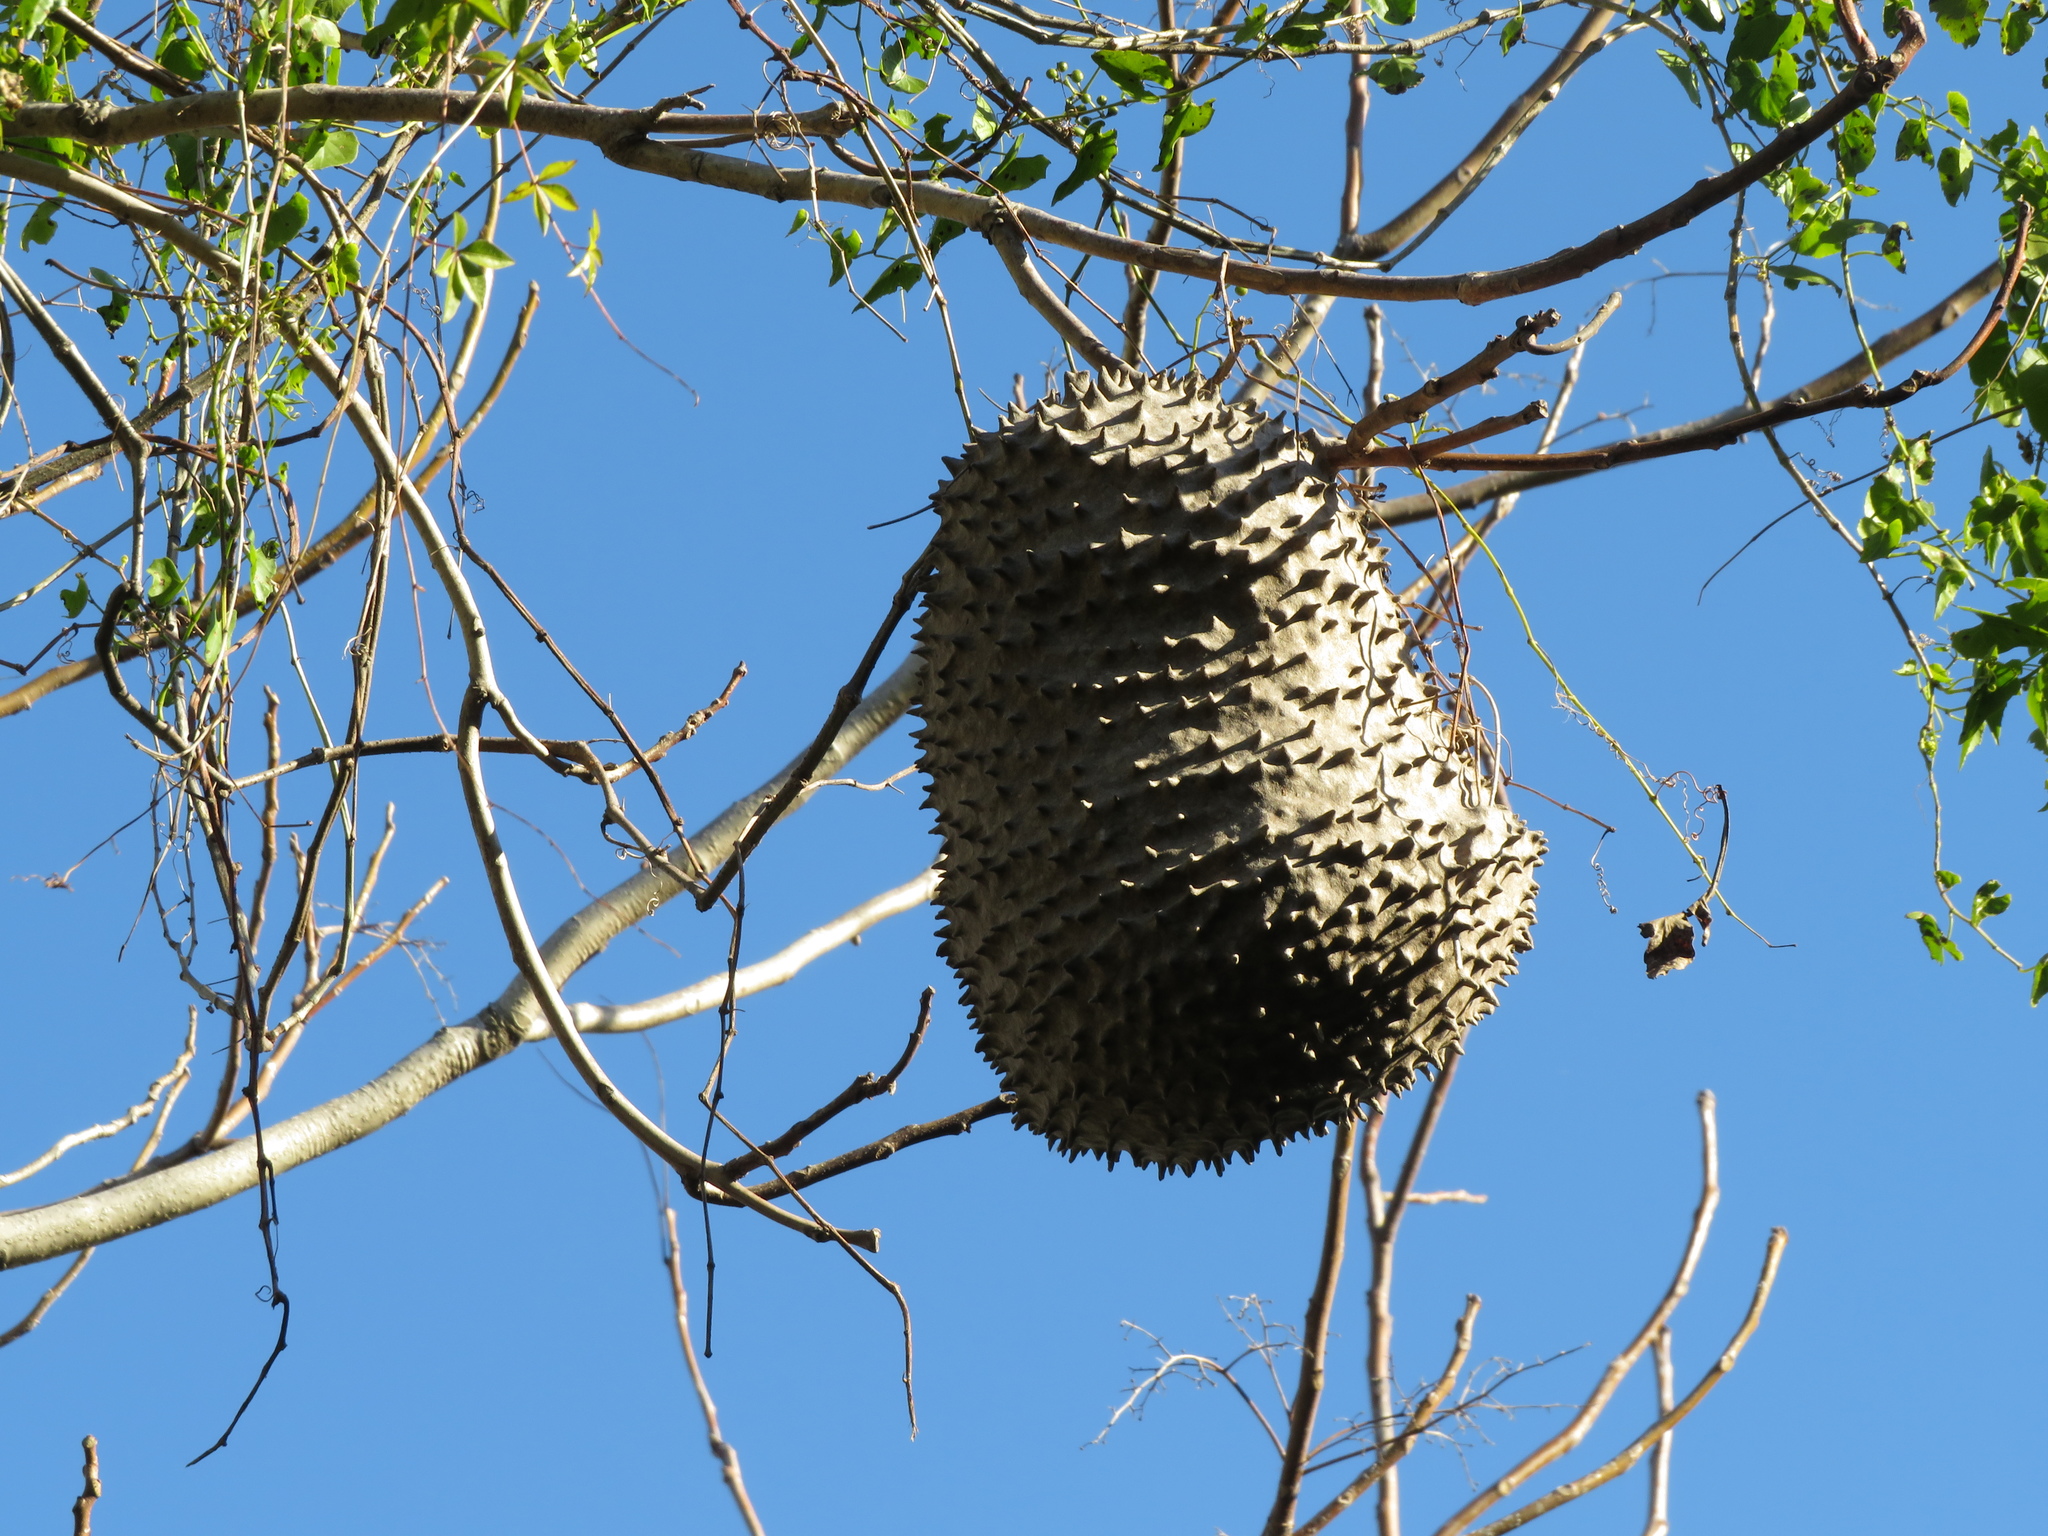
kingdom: Animalia
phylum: Arthropoda
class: Insecta
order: Hymenoptera
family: Eumenidae
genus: Polybia
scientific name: Polybia scutellaris
